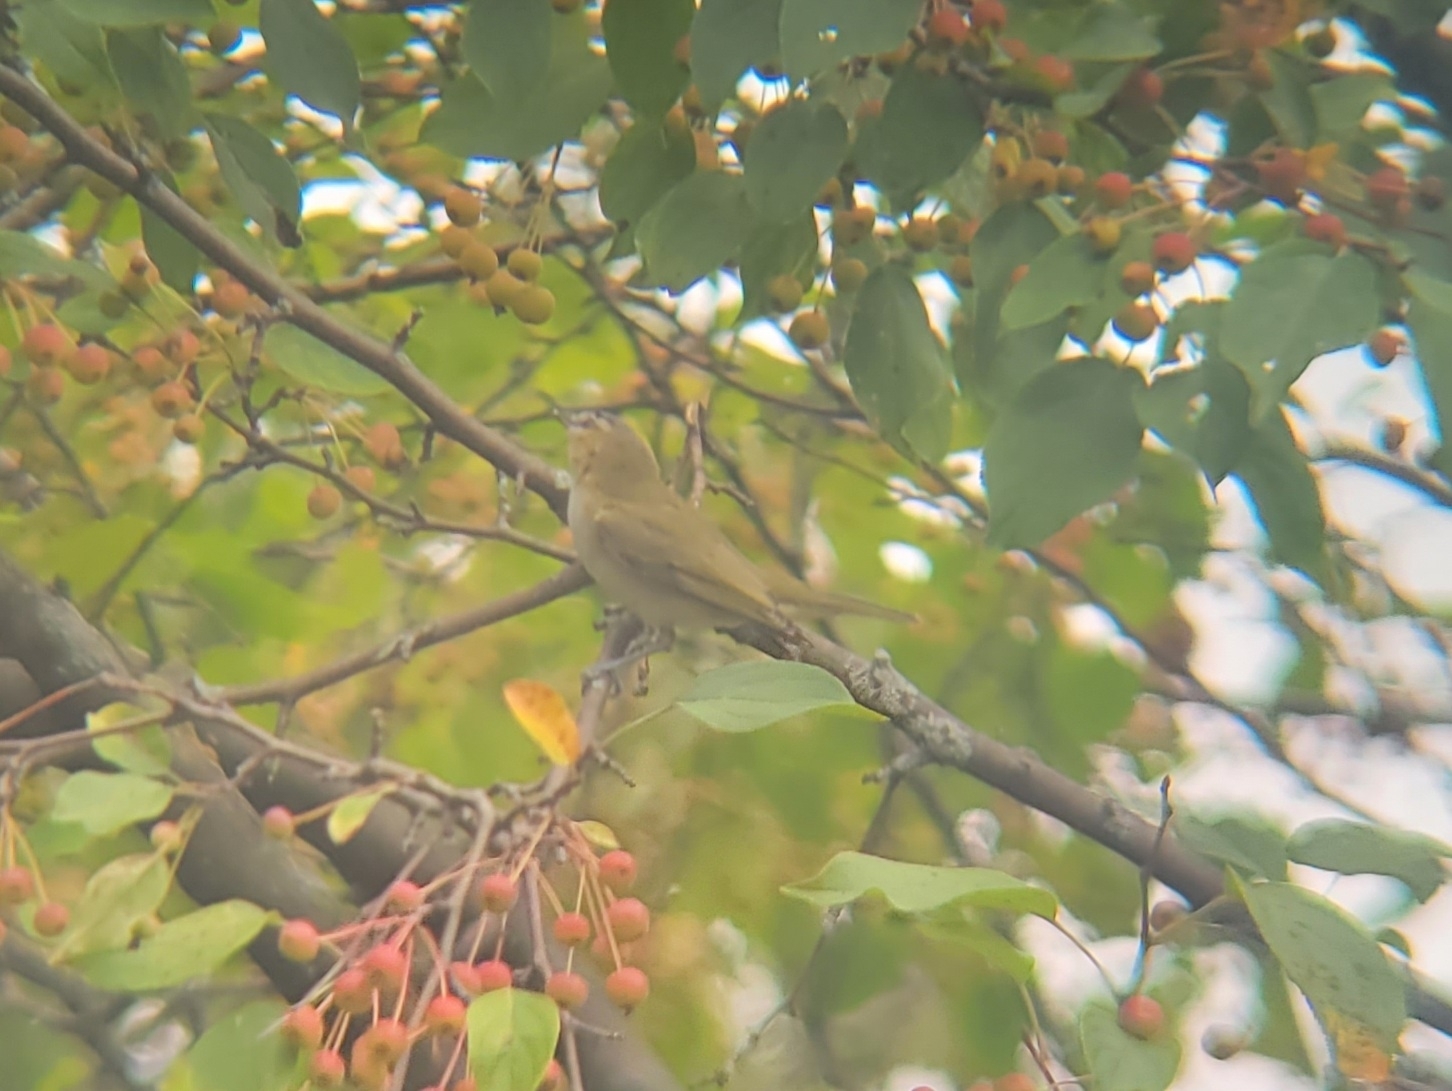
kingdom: Animalia
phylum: Chordata
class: Aves
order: Passeriformes
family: Vireonidae
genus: Vireo
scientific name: Vireo olivaceus
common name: Red-eyed vireo
